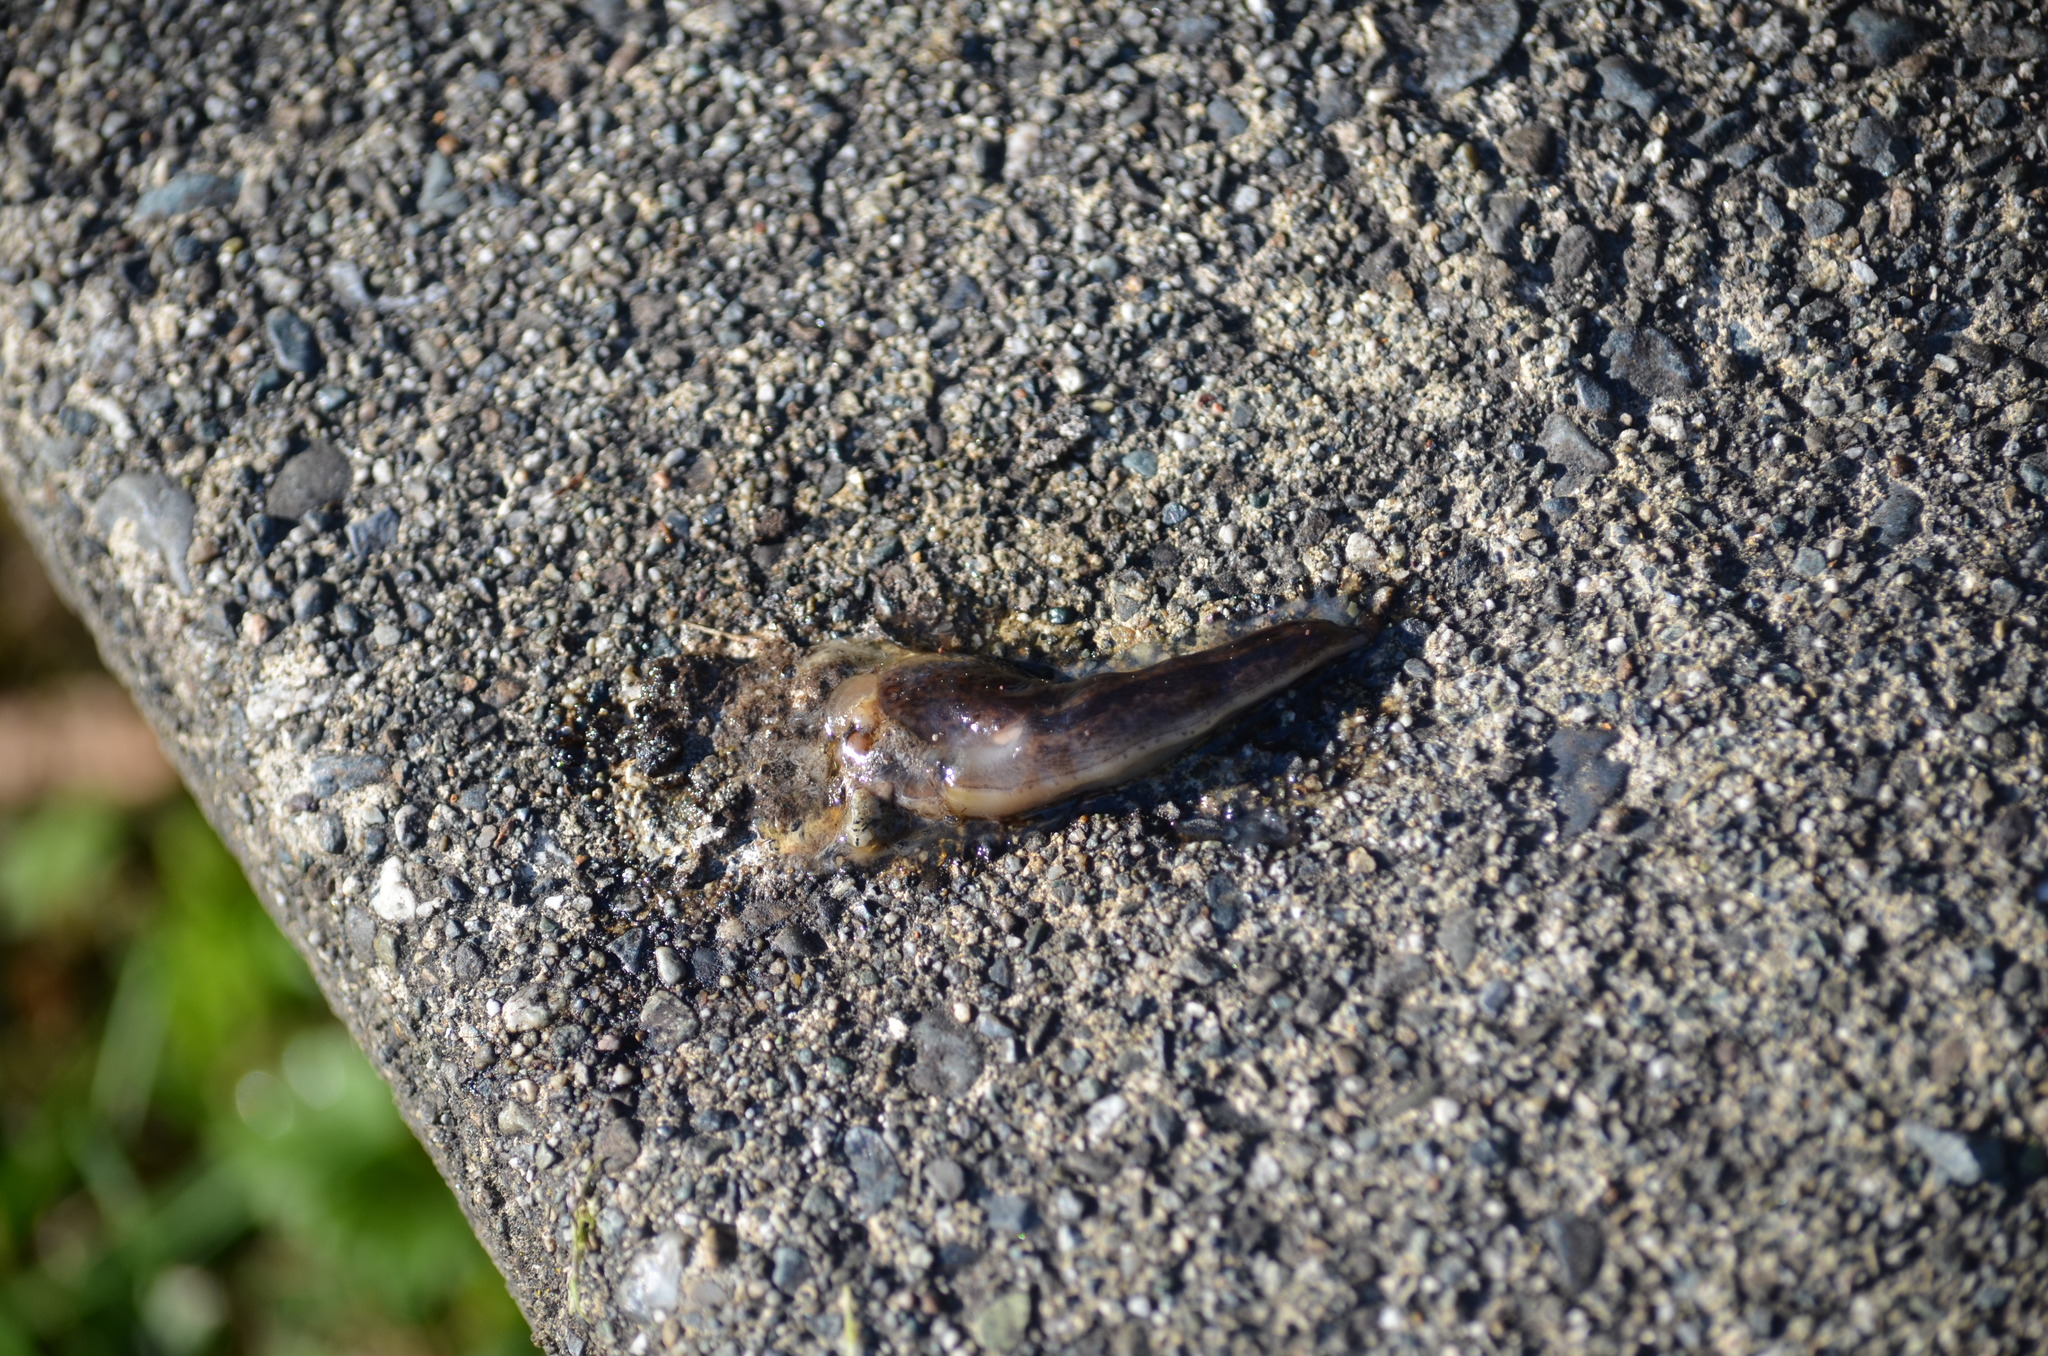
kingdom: Animalia
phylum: Mollusca
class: Gastropoda
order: Stylommatophora
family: Limacidae
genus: Limax
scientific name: Limax maximus
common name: Great grey slug
